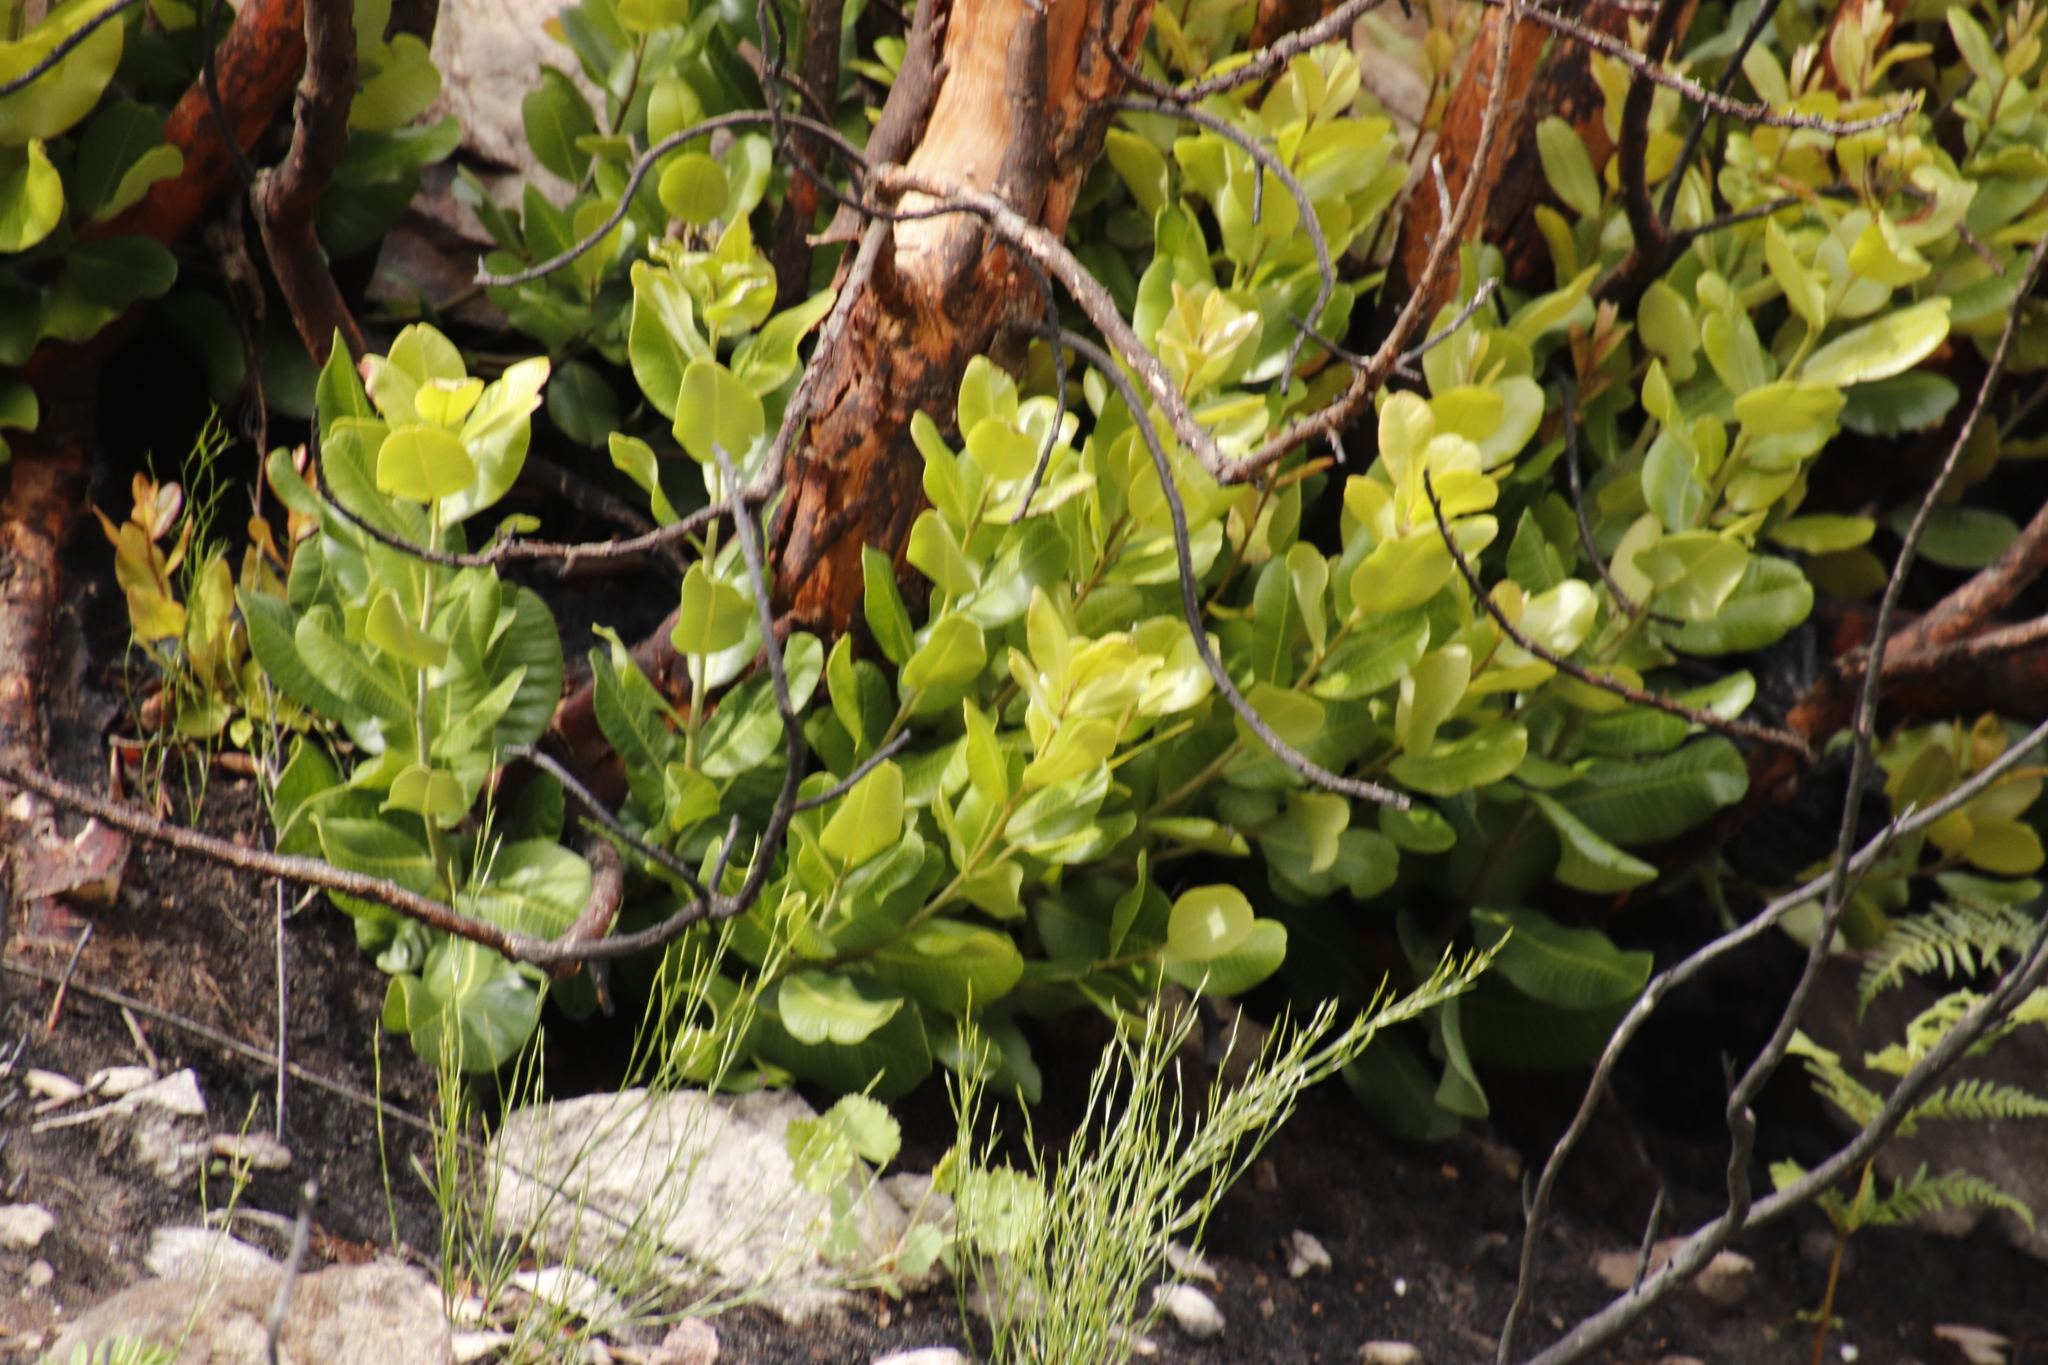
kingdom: Plantae
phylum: Tracheophyta
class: Magnoliopsida
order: Sapindales
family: Anacardiaceae
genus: Heeria
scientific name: Heeria argentea
